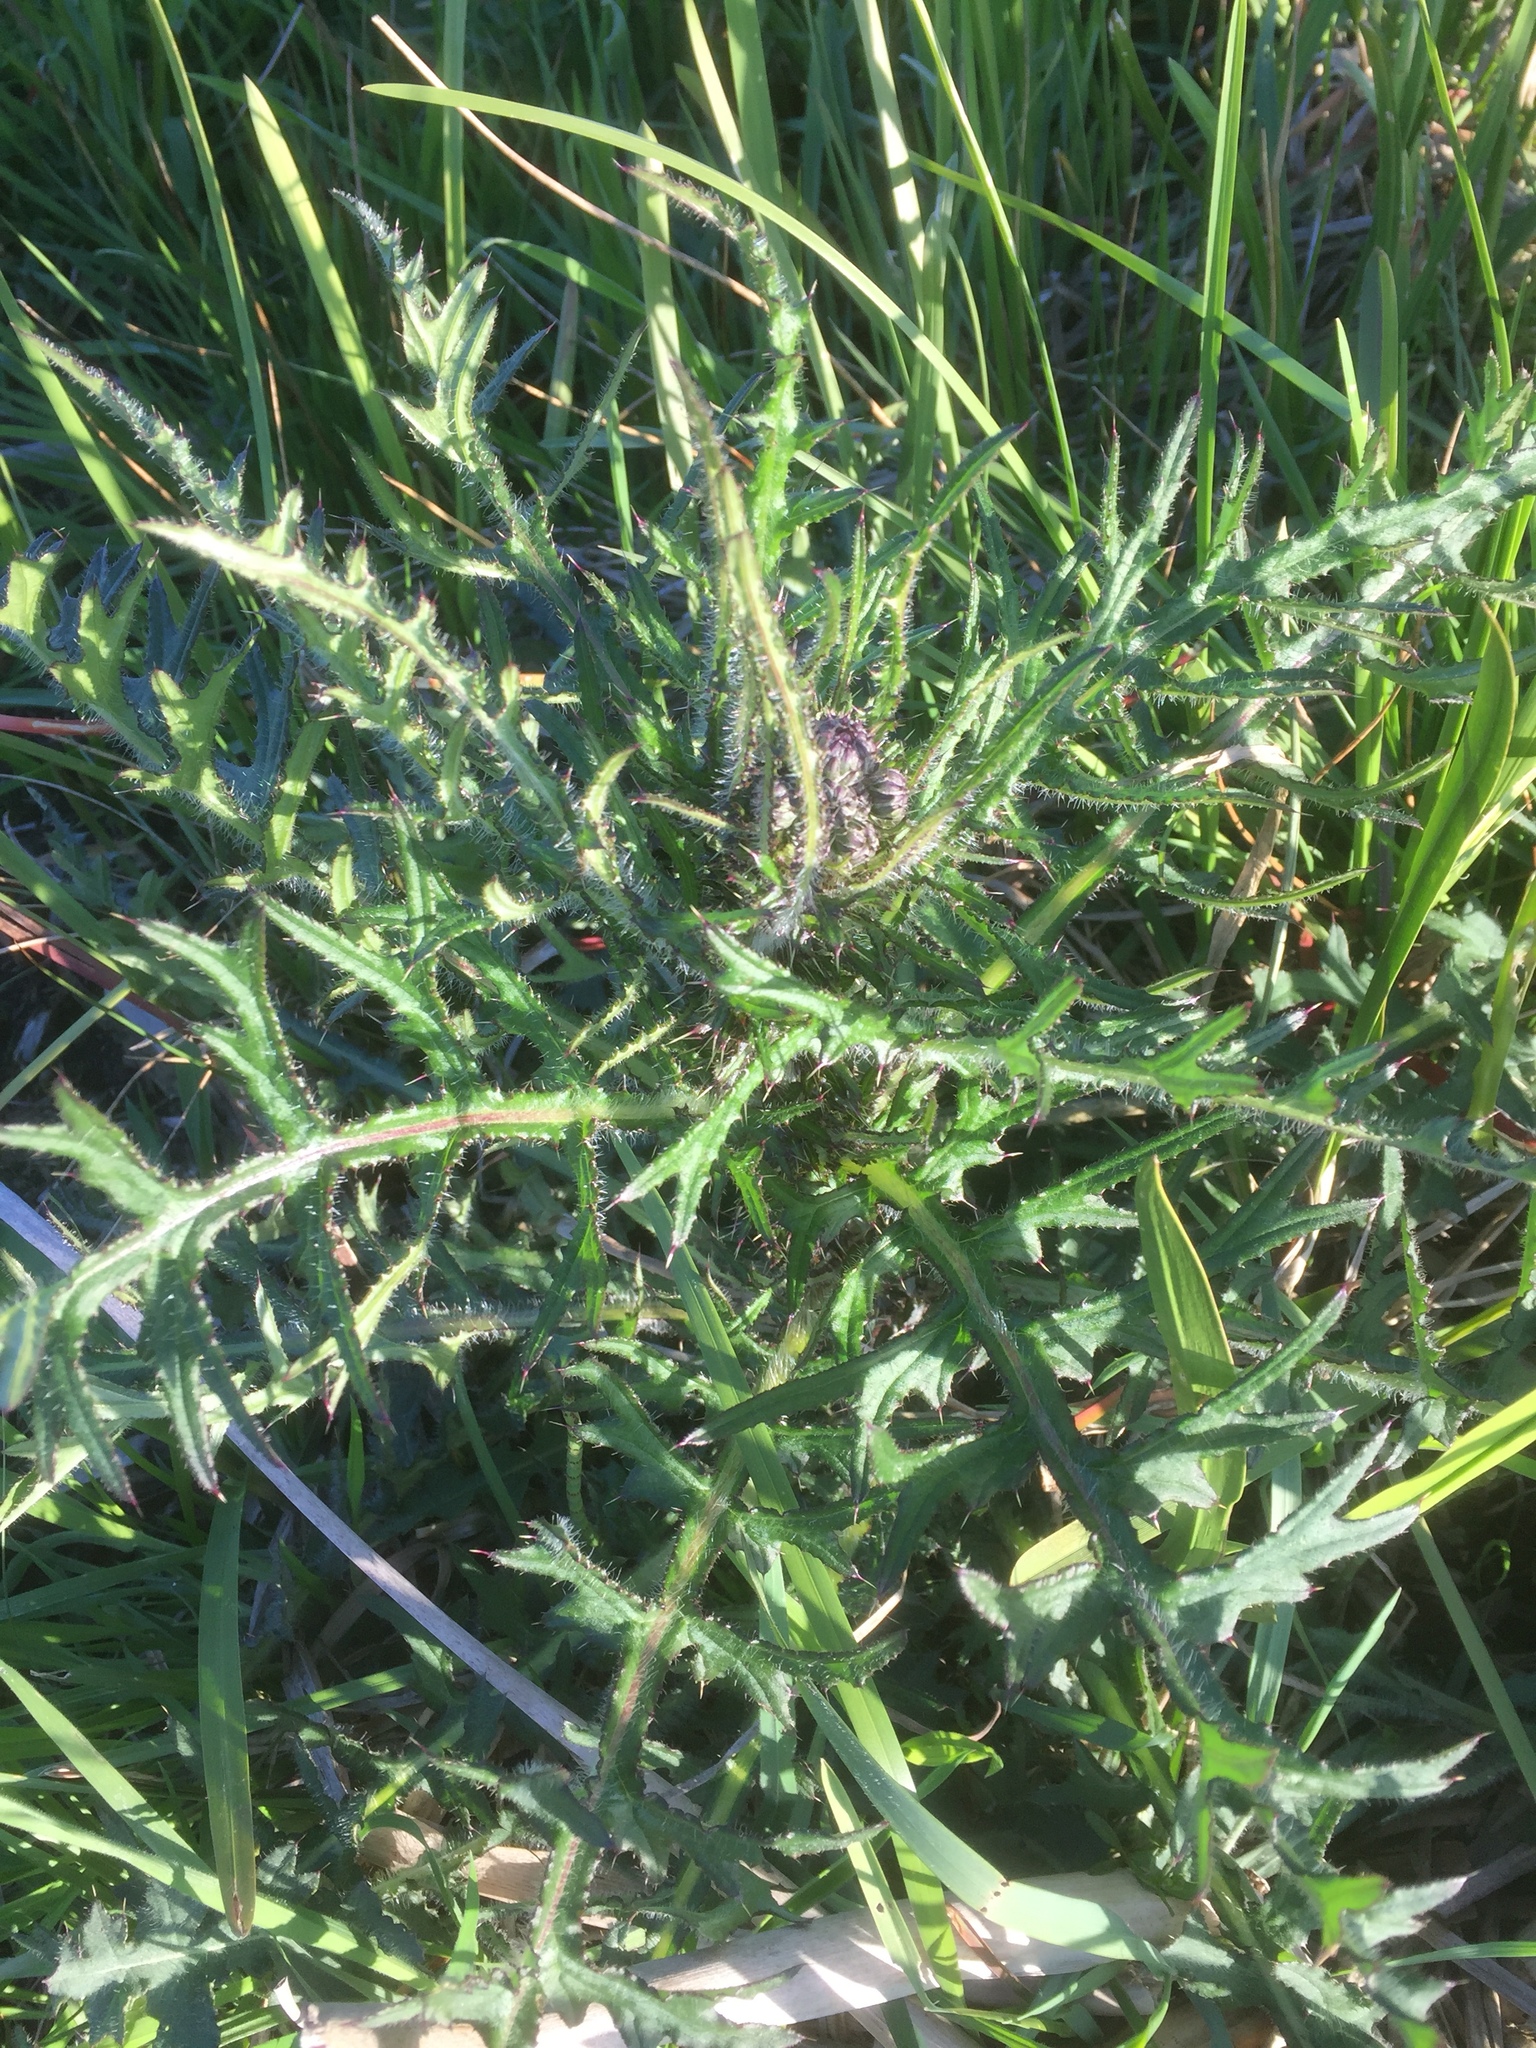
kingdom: Plantae
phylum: Tracheophyta
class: Magnoliopsida
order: Asterales
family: Asteraceae
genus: Cirsium
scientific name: Cirsium palustre
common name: Marsh thistle
